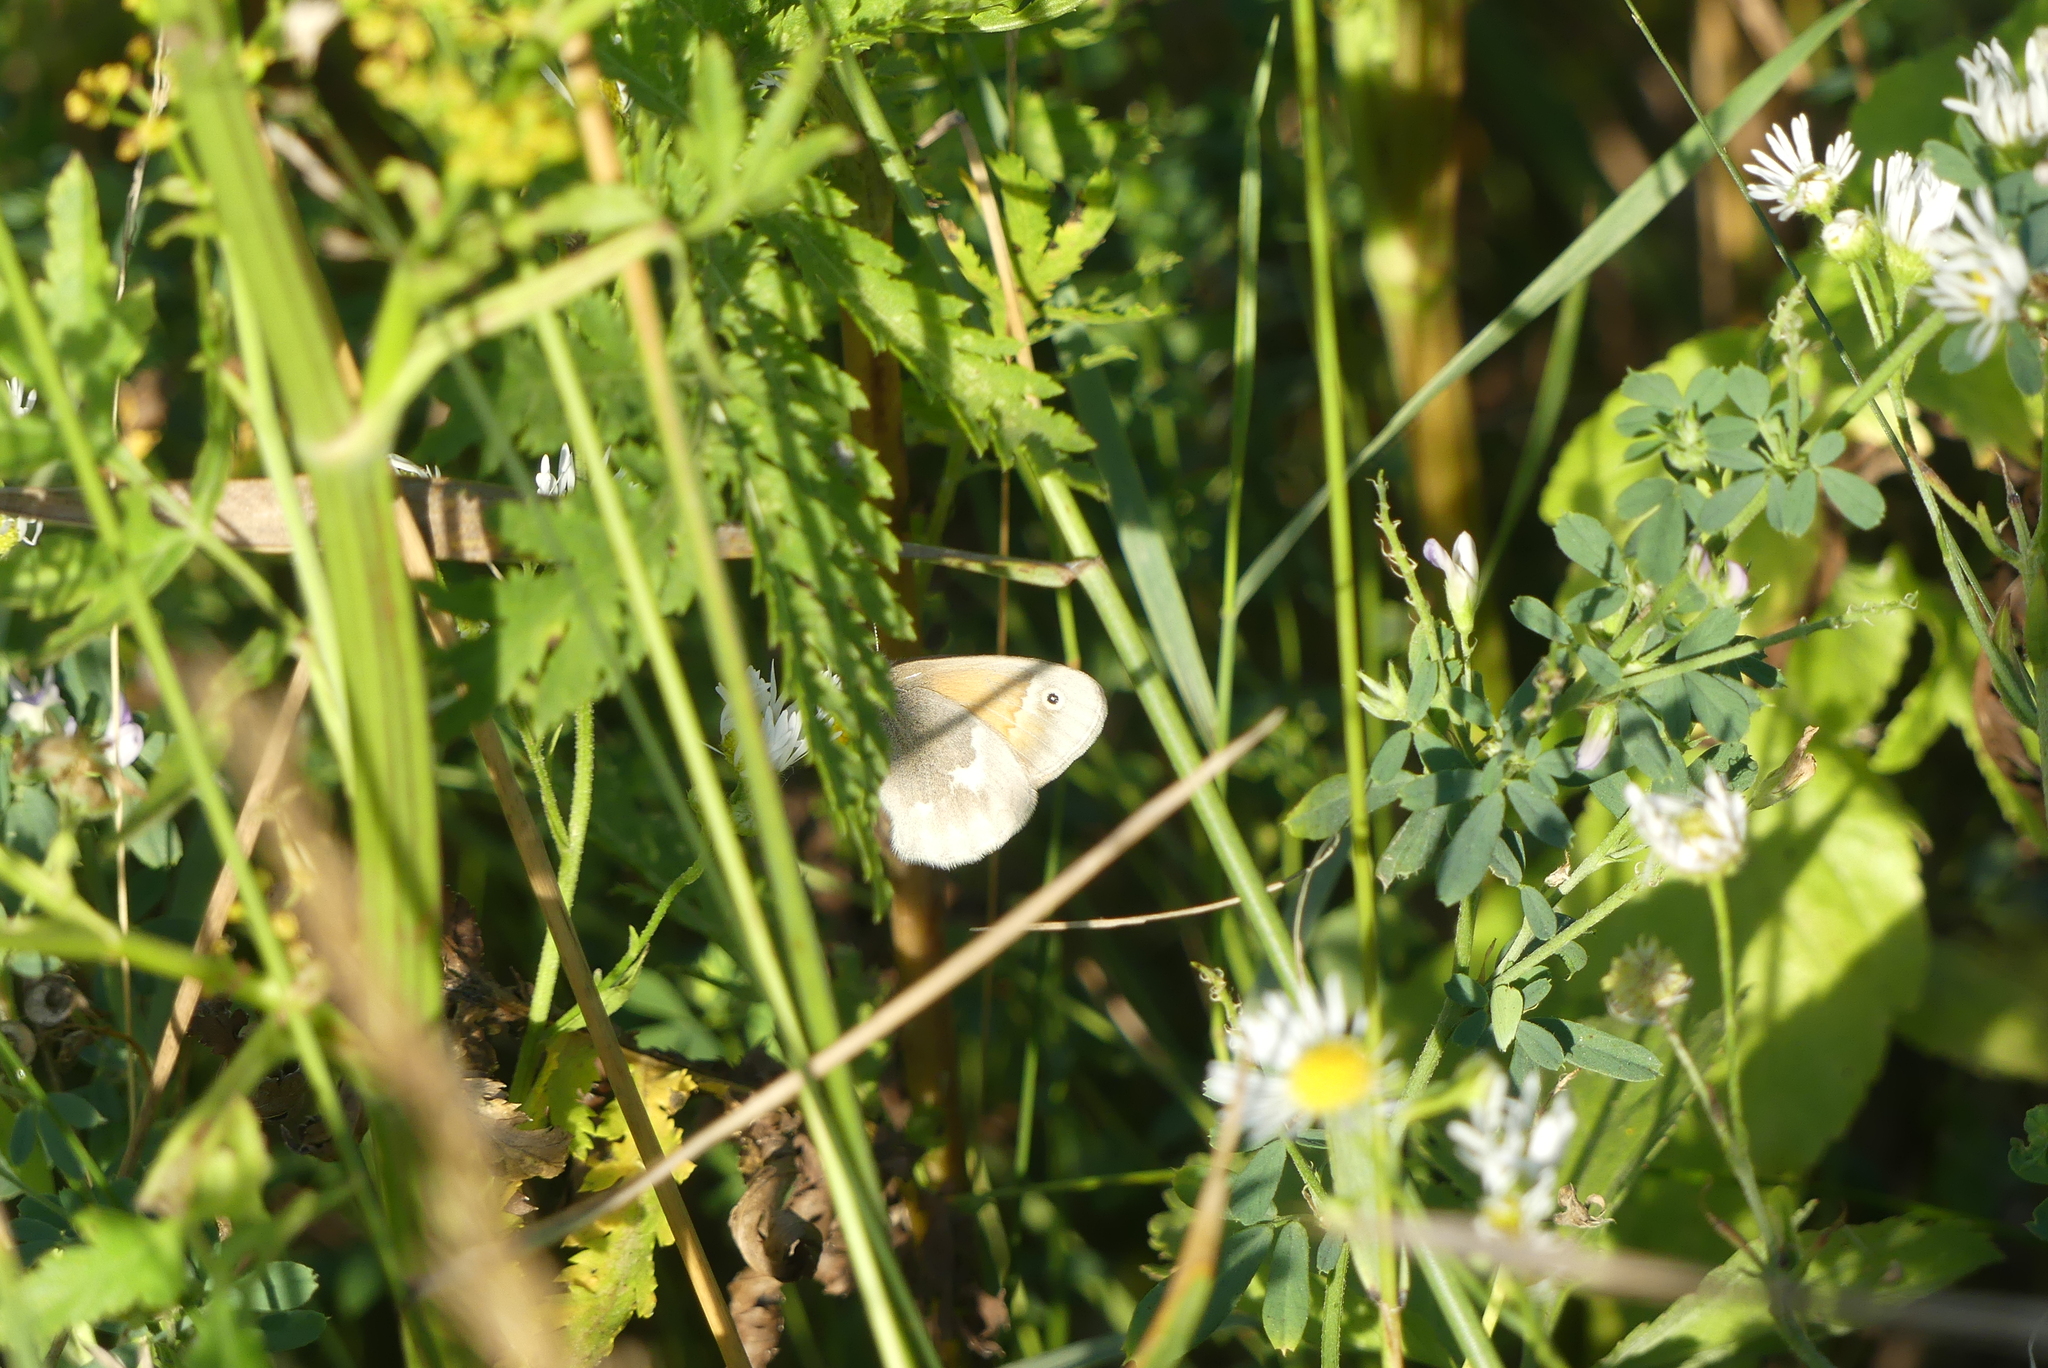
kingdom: Animalia
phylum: Arthropoda
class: Insecta
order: Lepidoptera
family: Nymphalidae
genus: Coenonympha
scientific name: Coenonympha california
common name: Common ringlet
